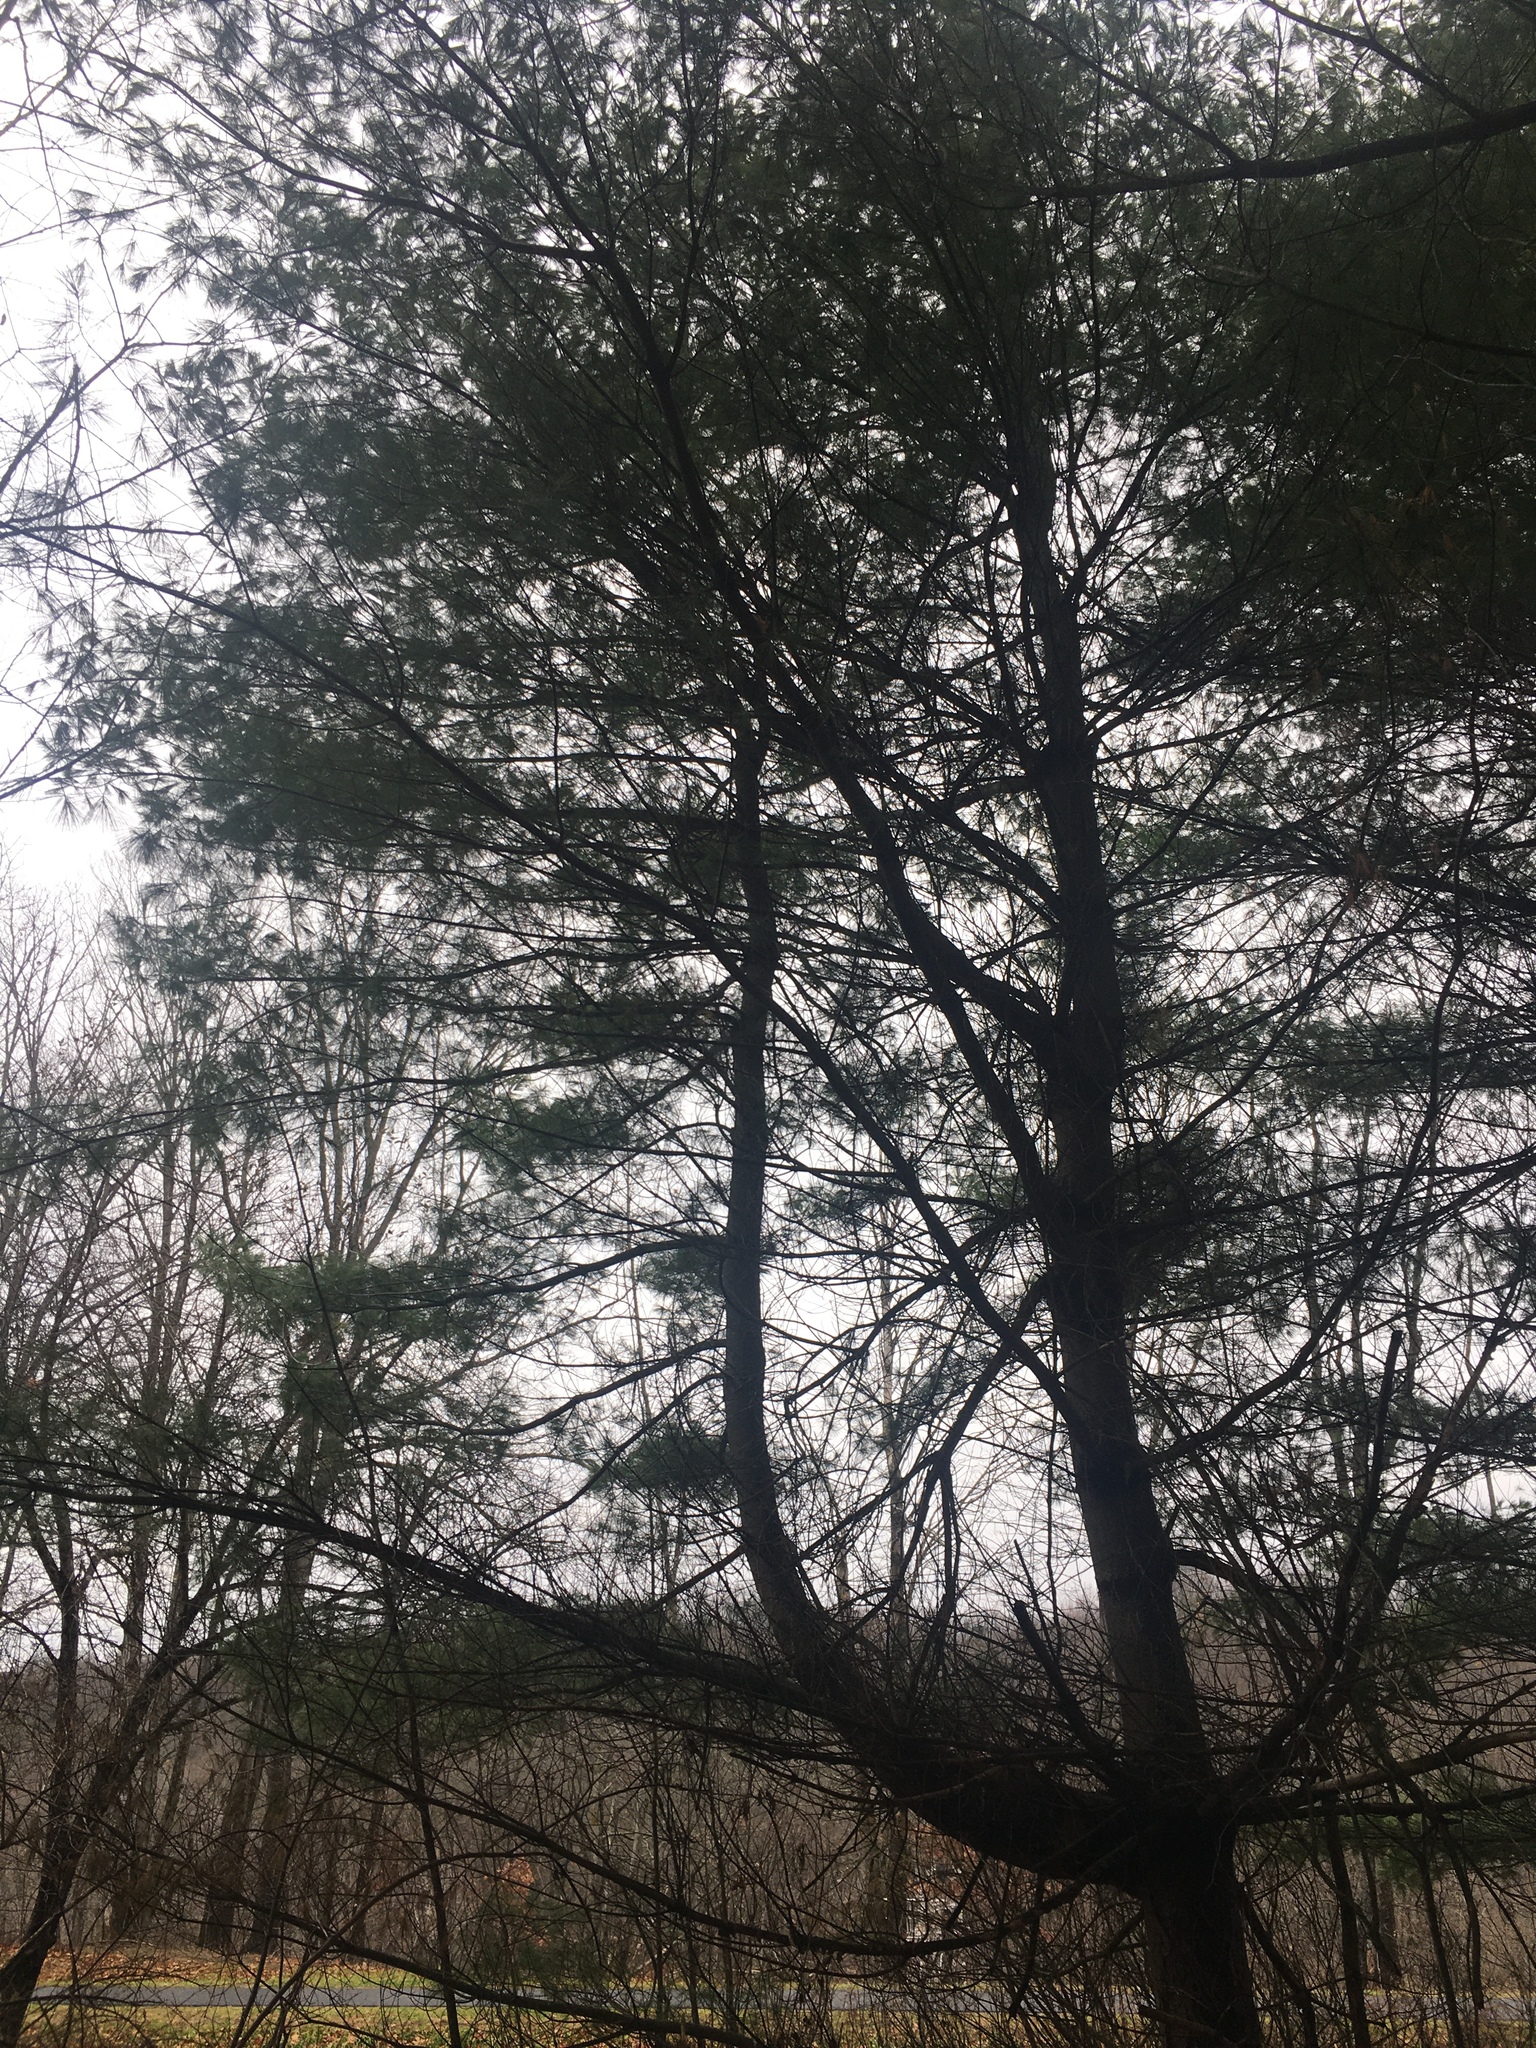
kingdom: Plantae
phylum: Tracheophyta
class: Pinopsida
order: Pinales
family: Pinaceae
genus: Pinus
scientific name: Pinus strobus
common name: Weymouth pine
